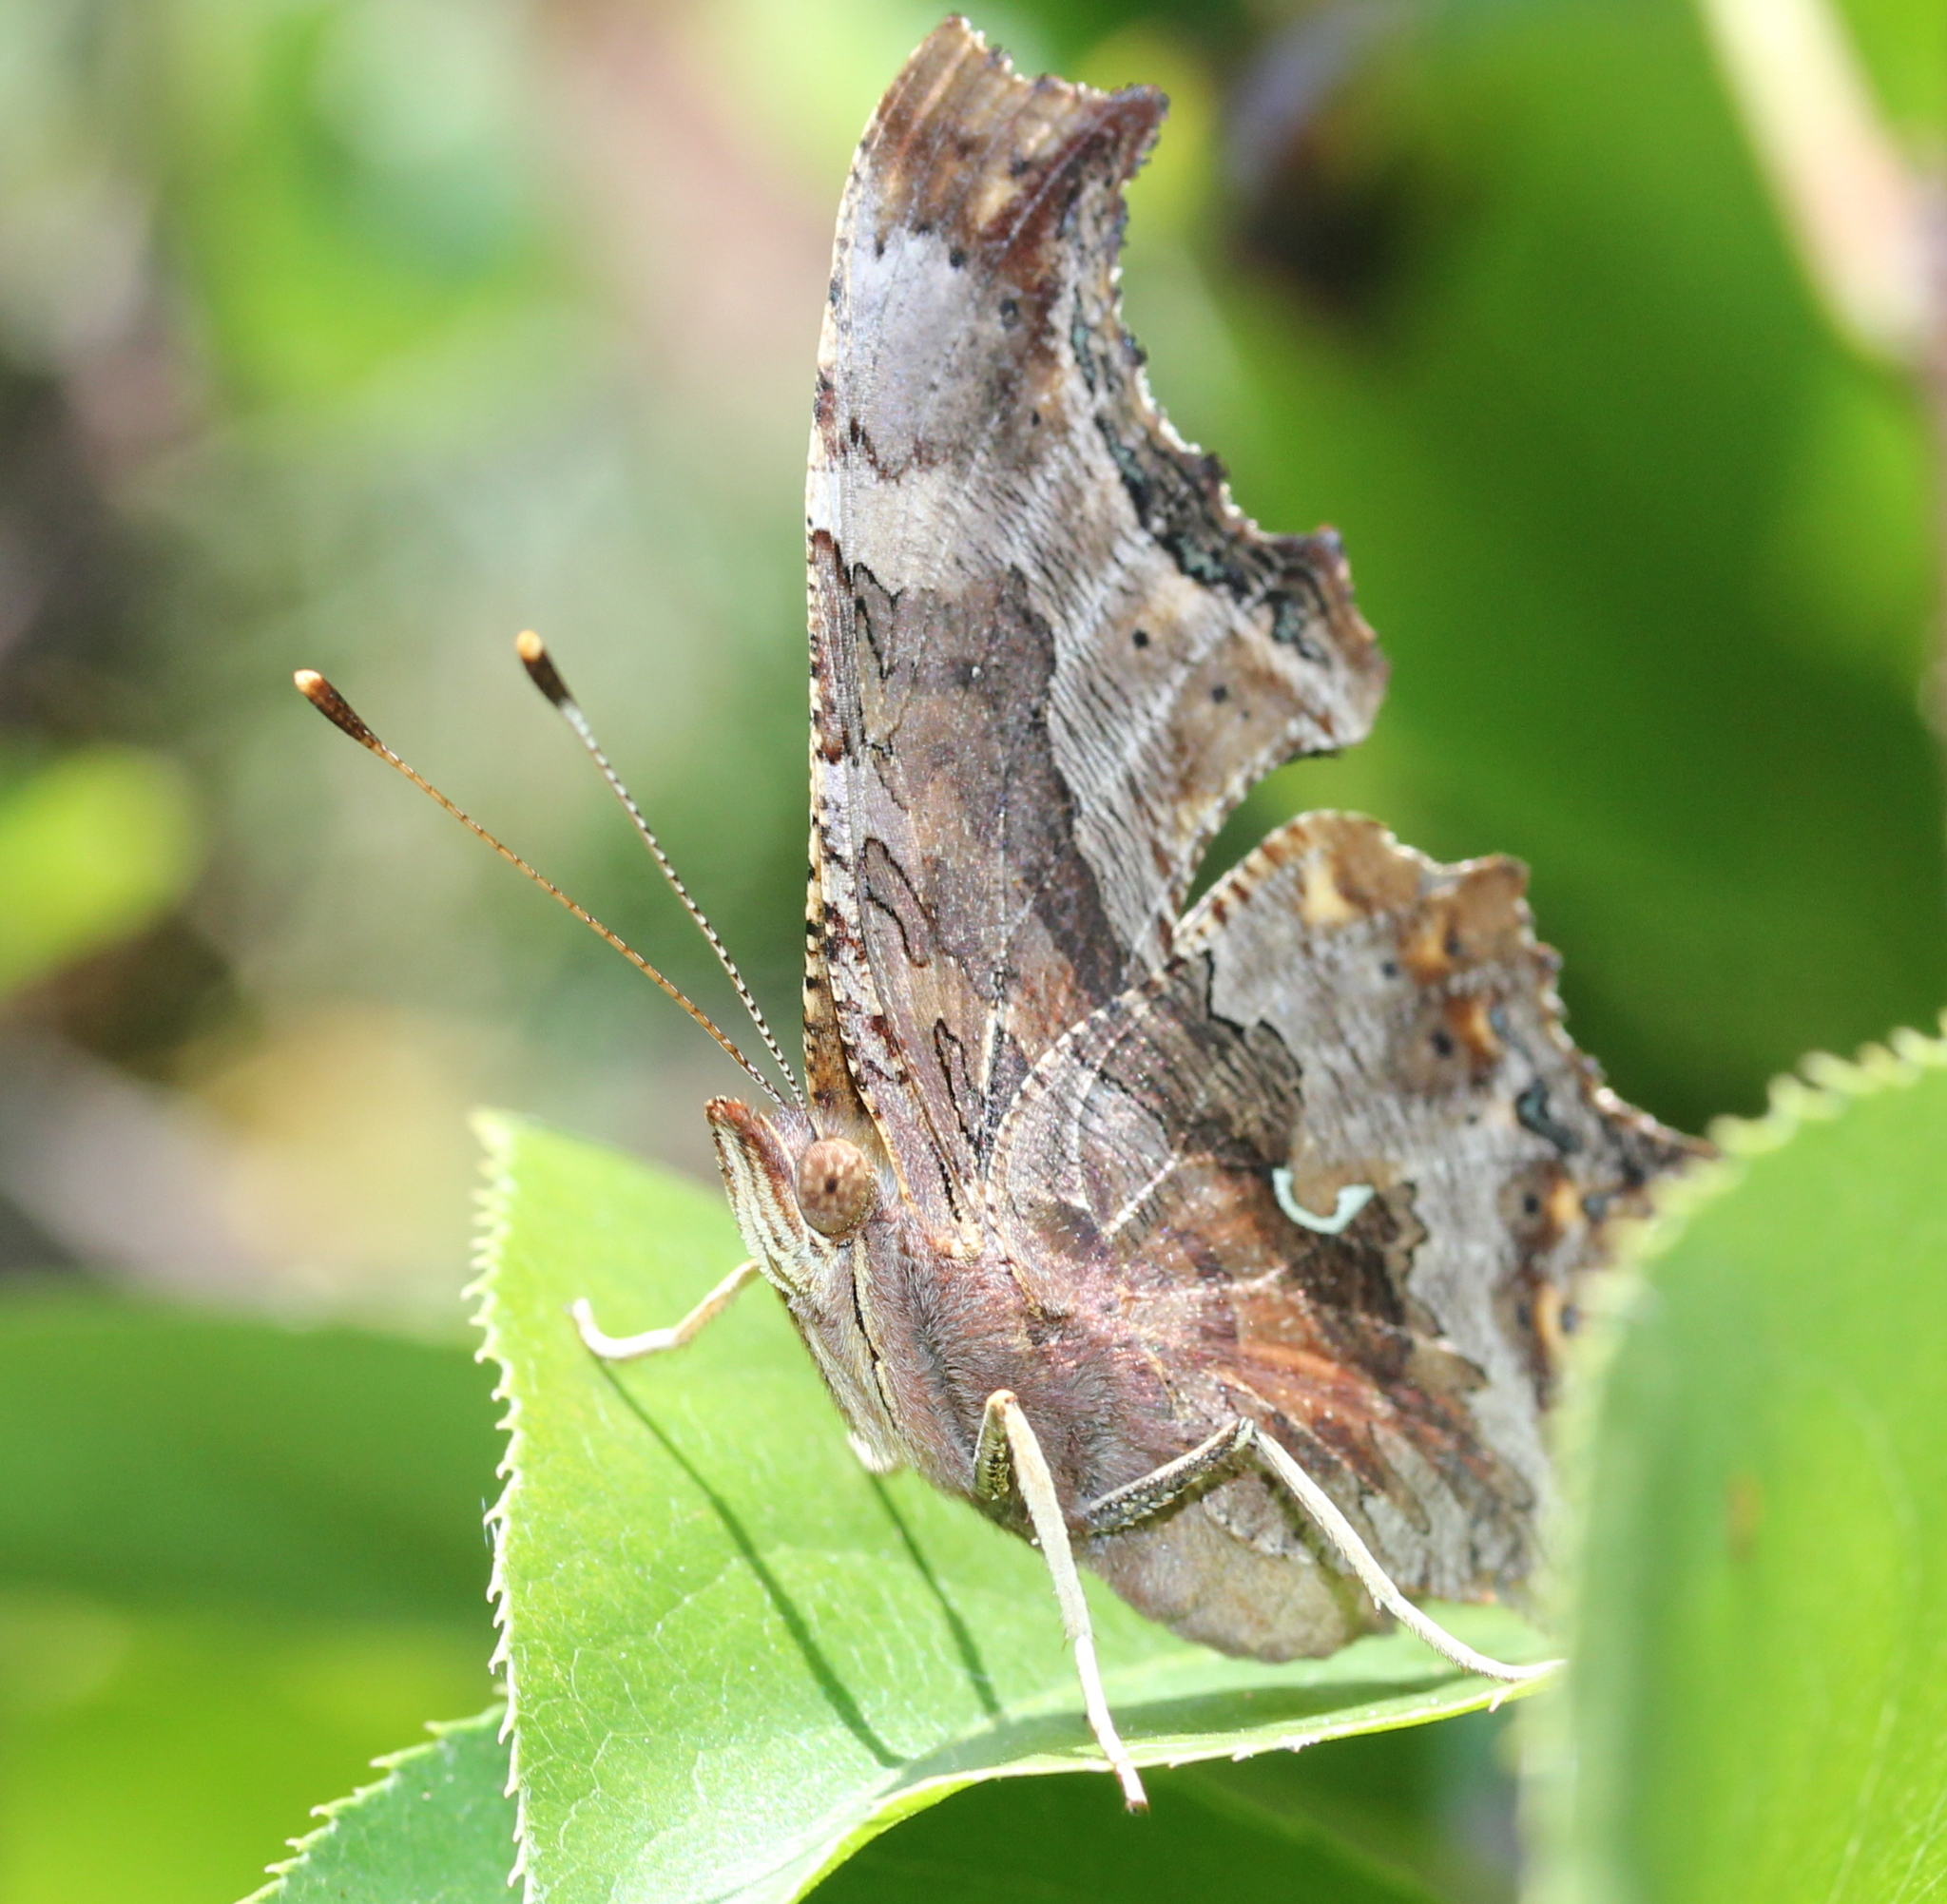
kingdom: Animalia
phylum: Arthropoda
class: Insecta
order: Lepidoptera
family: Nymphalidae
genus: Polygonia
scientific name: Polygonia comma
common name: Eastern comma
